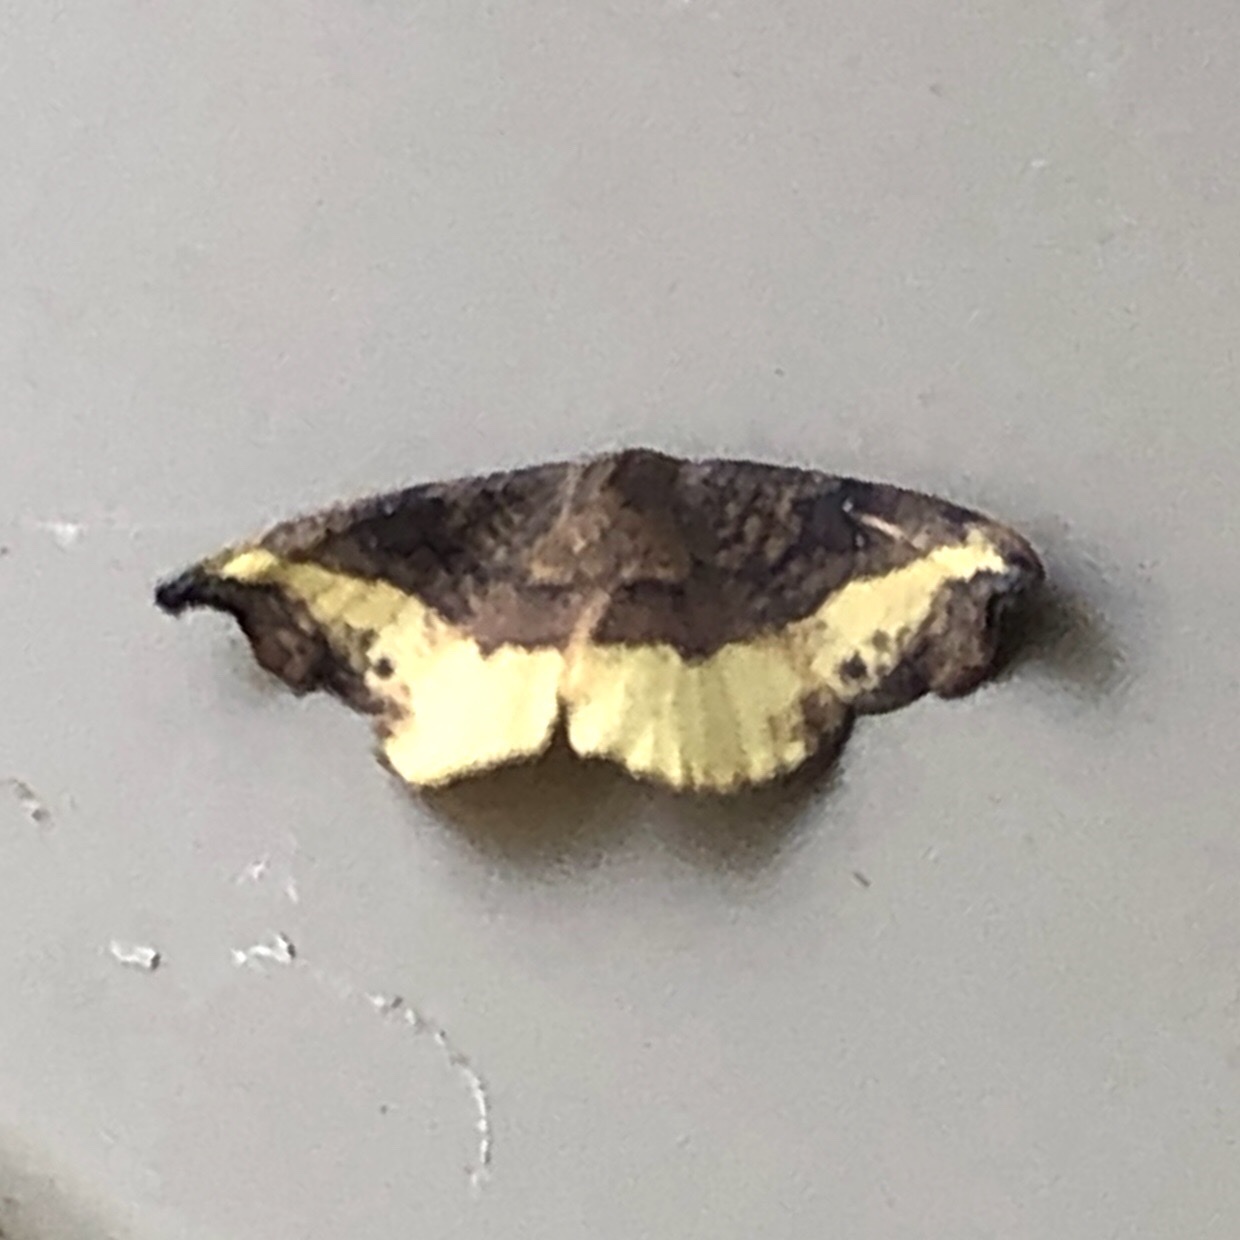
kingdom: Animalia
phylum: Arthropoda
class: Insecta
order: Lepidoptera
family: Drepanidae
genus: Oreta
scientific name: Oreta rosea
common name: Rose hooktip
